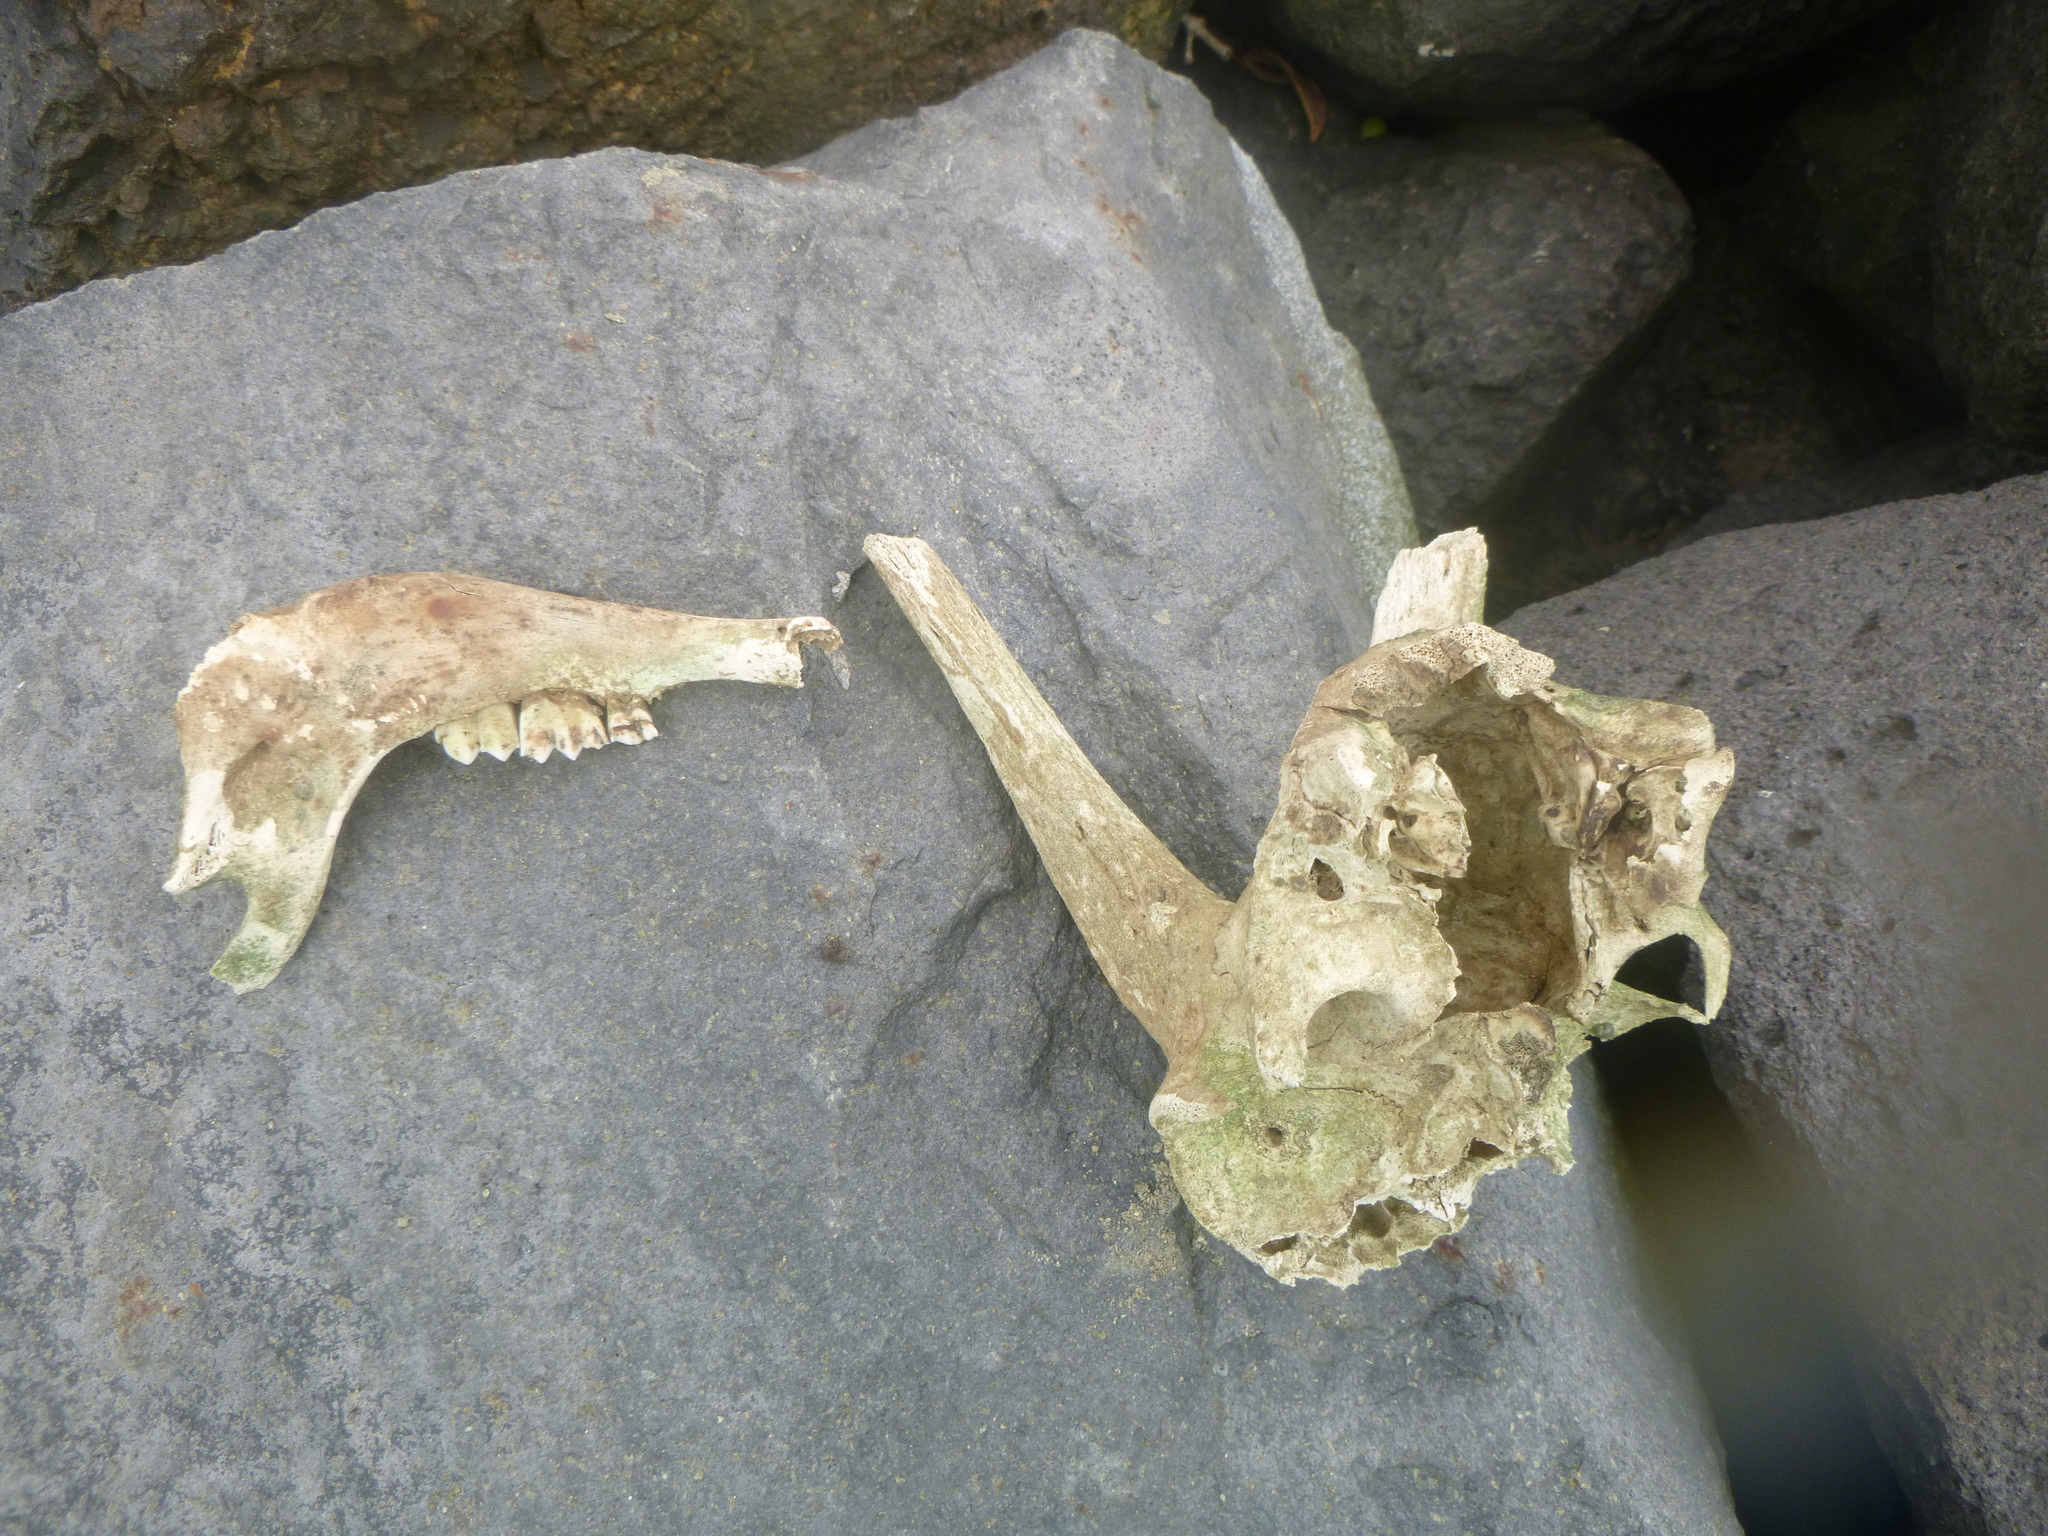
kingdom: Animalia
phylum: Chordata
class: Mammalia
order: Artiodactyla
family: Bovidae
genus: Capra
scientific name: Capra hircus
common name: Domestic goat
